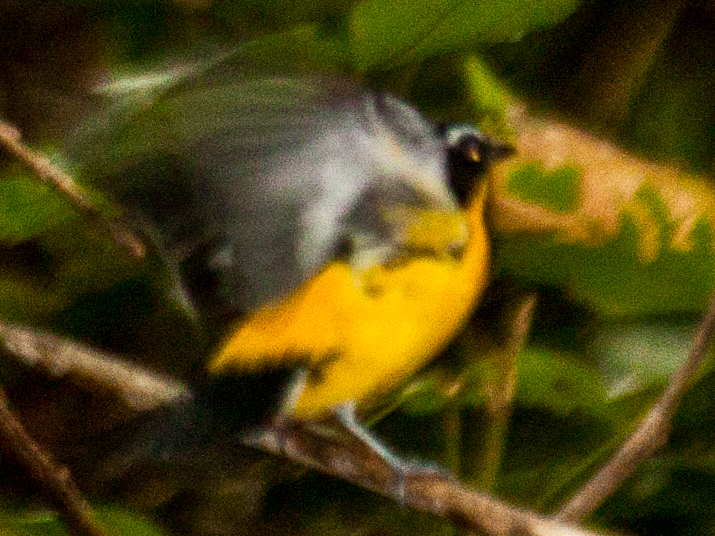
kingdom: Animalia
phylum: Chordata
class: Aves
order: Passeriformes
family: Muscicapidae
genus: Ficedula
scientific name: Ficedula zanthopygia
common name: Yellow-rumped flycatcher
